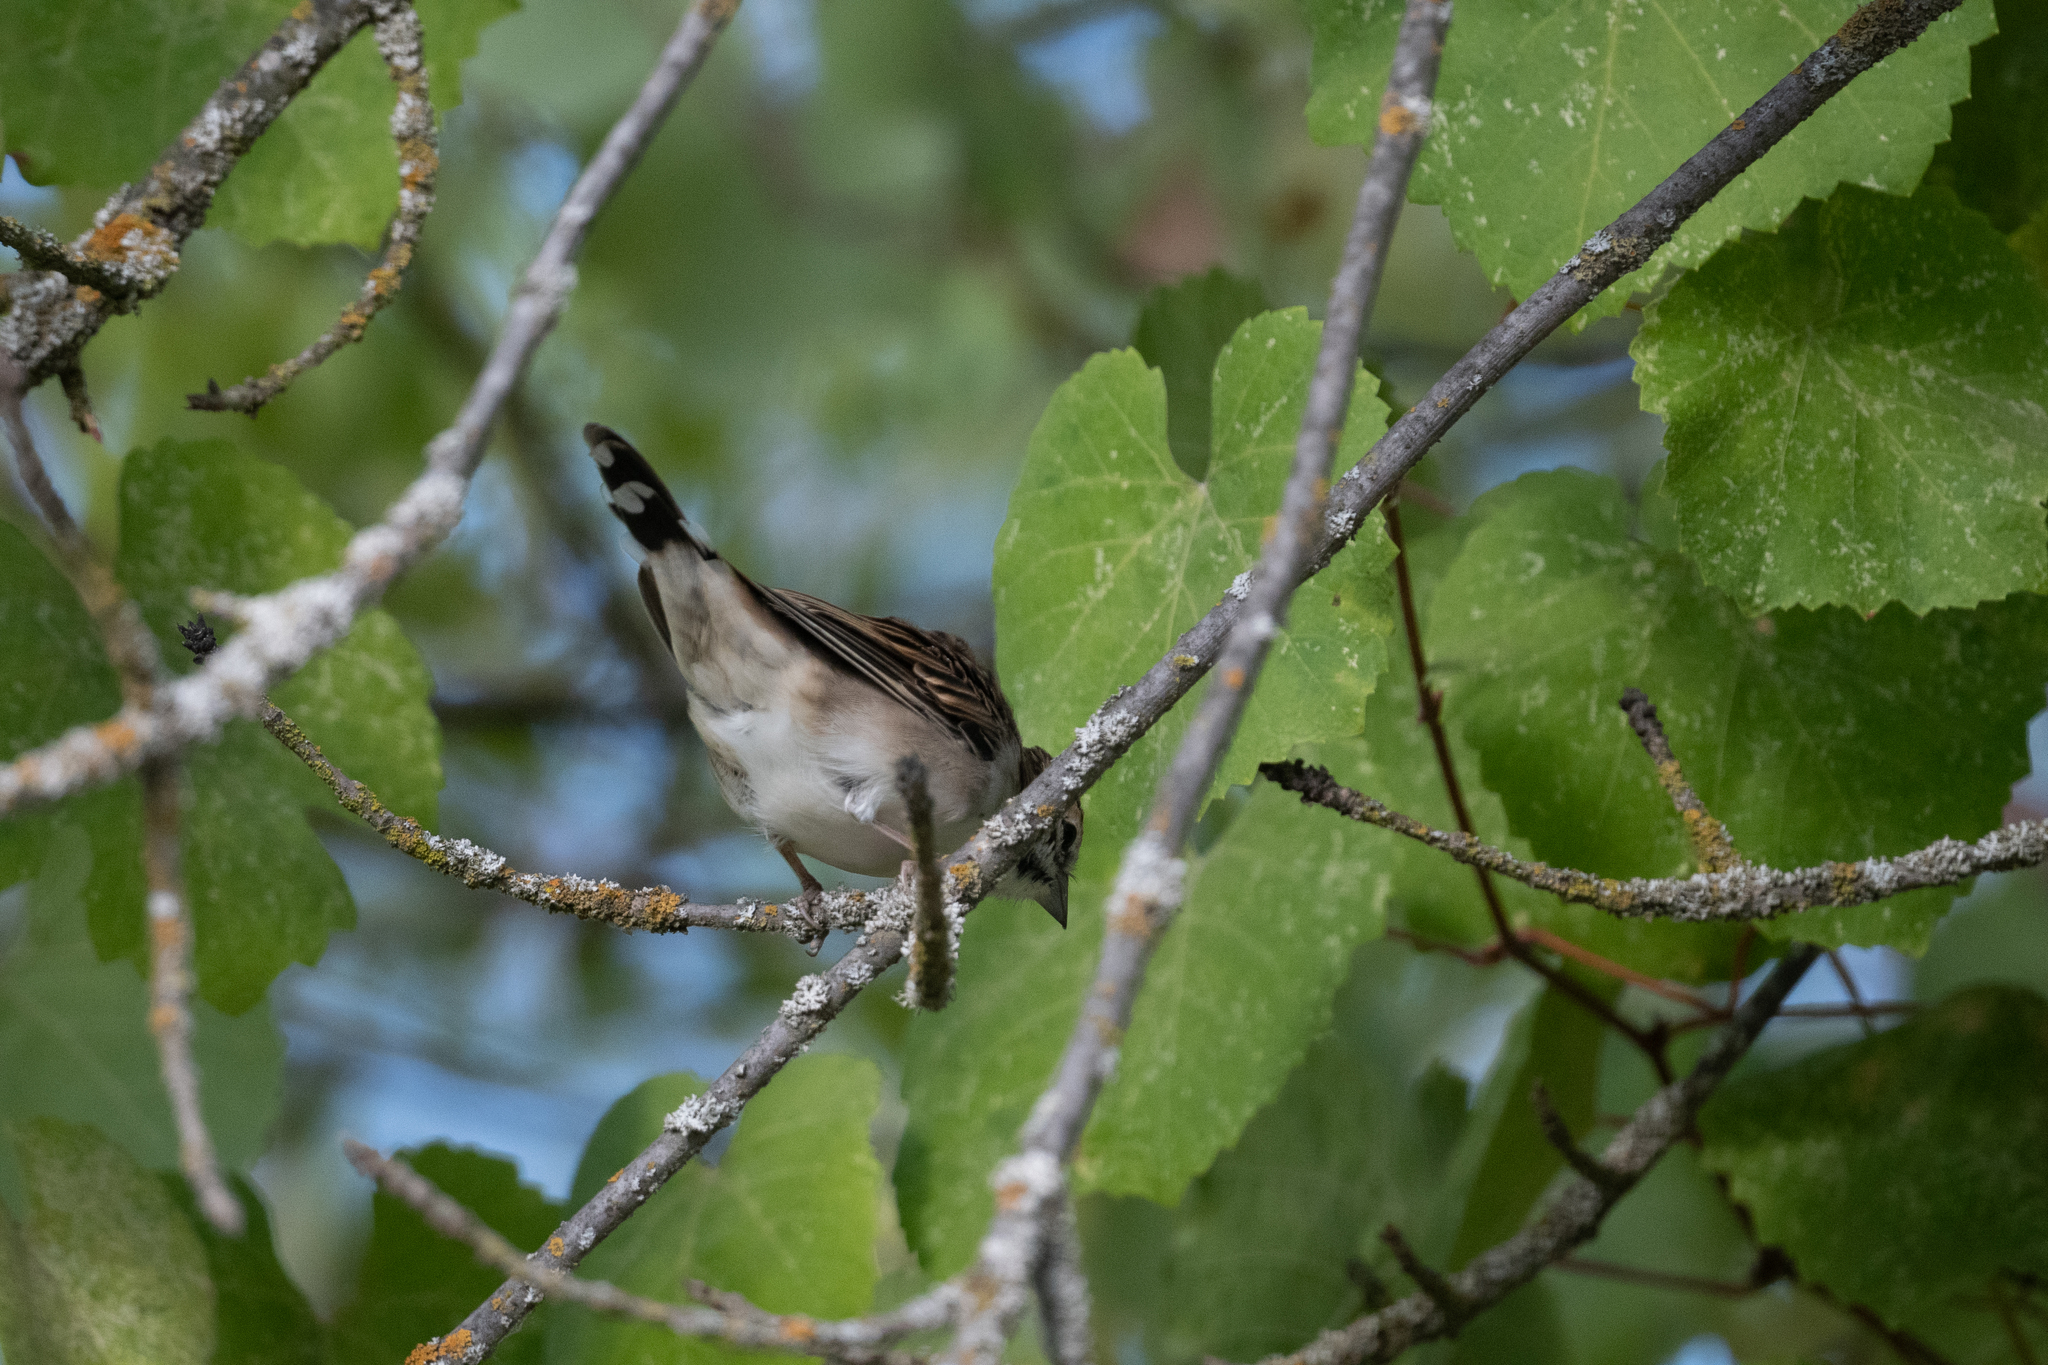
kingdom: Animalia
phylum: Chordata
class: Aves
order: Passeriformes
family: Passerellidae
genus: Chondestes
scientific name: Chondestes grammacus
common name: Lark sparrow
